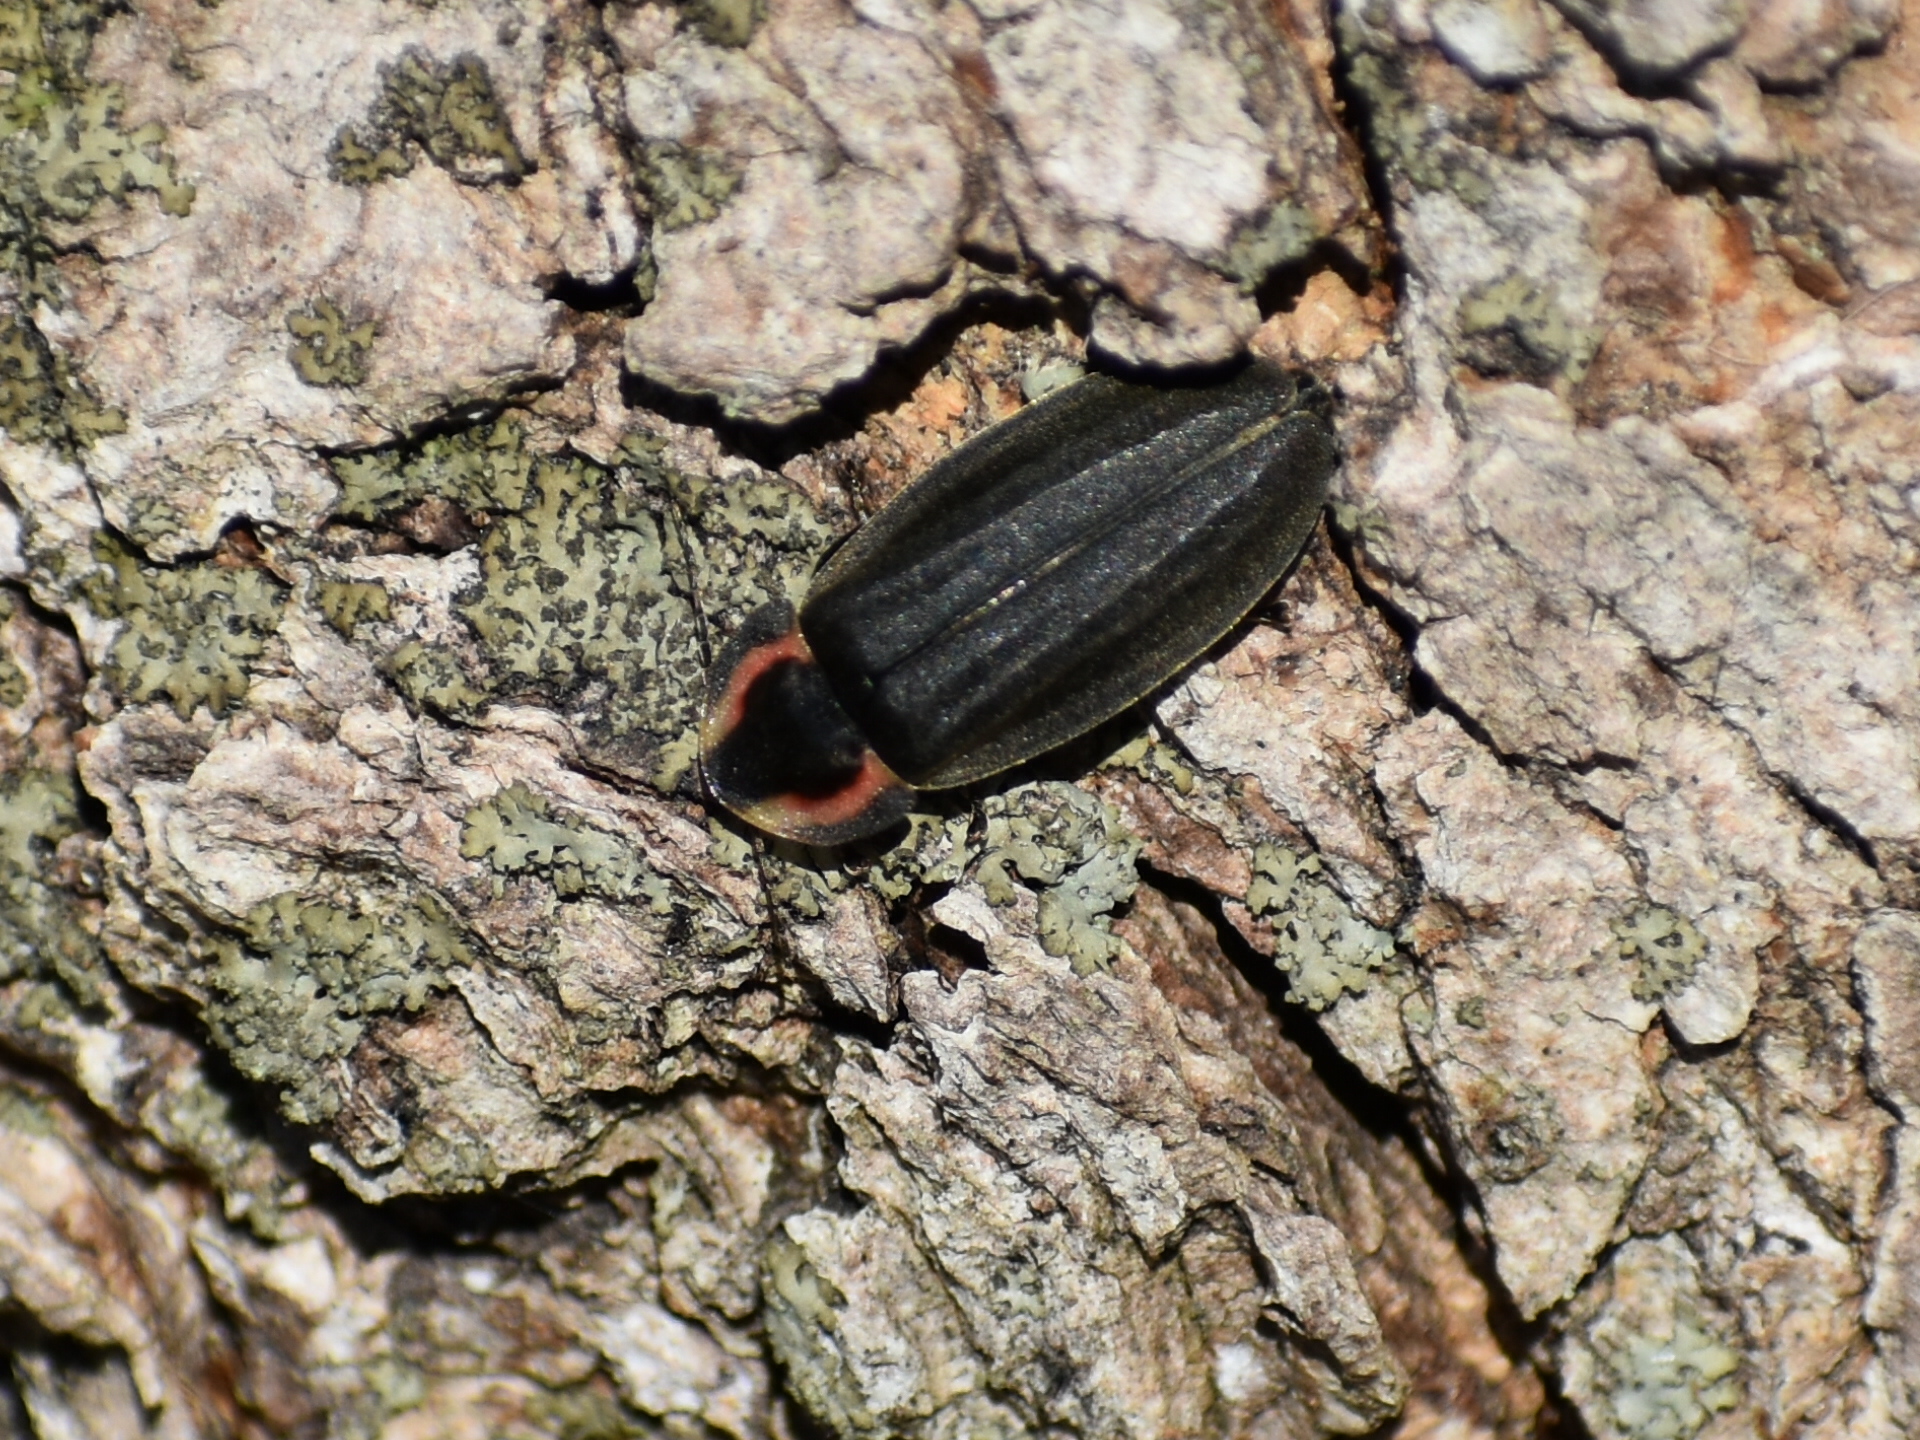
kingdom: Animalia
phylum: Arthropoda
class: Insecta
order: Coleoptera
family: Lampyridae
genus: Photinus
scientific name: Photinus corrusca
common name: Winter firefly
